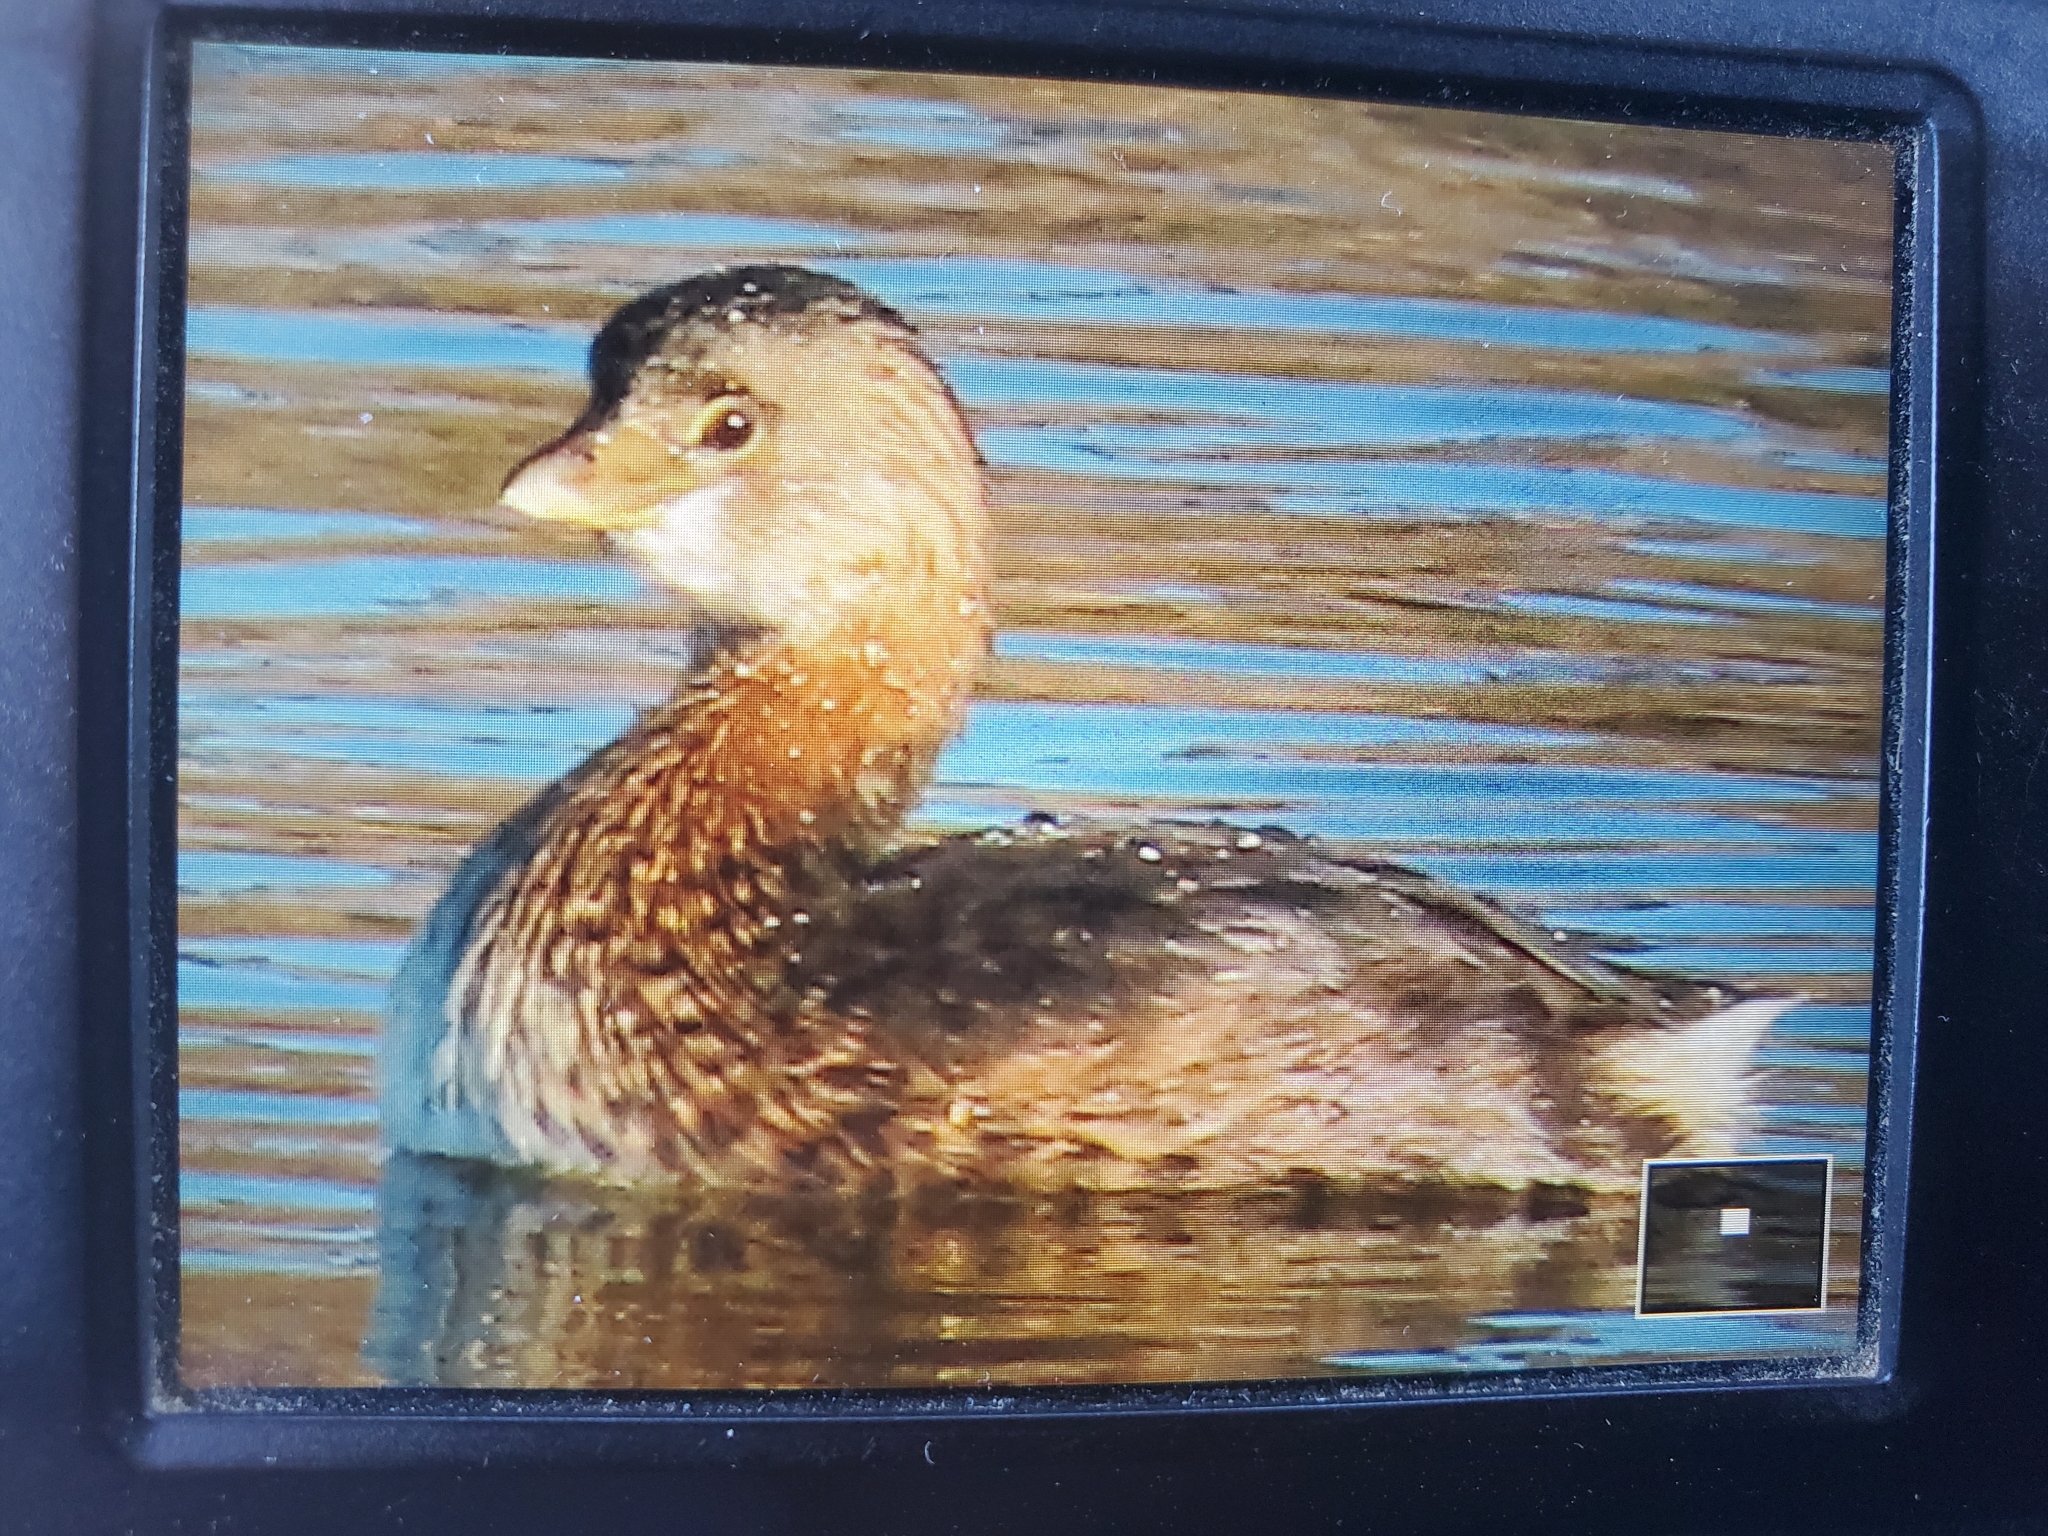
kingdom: Animalia
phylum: Chordata
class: Aves
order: Podicipediformes
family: Podicipedidae
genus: Podilymbus
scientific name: Podilymbus podiceps
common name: Pied-billed grebe
